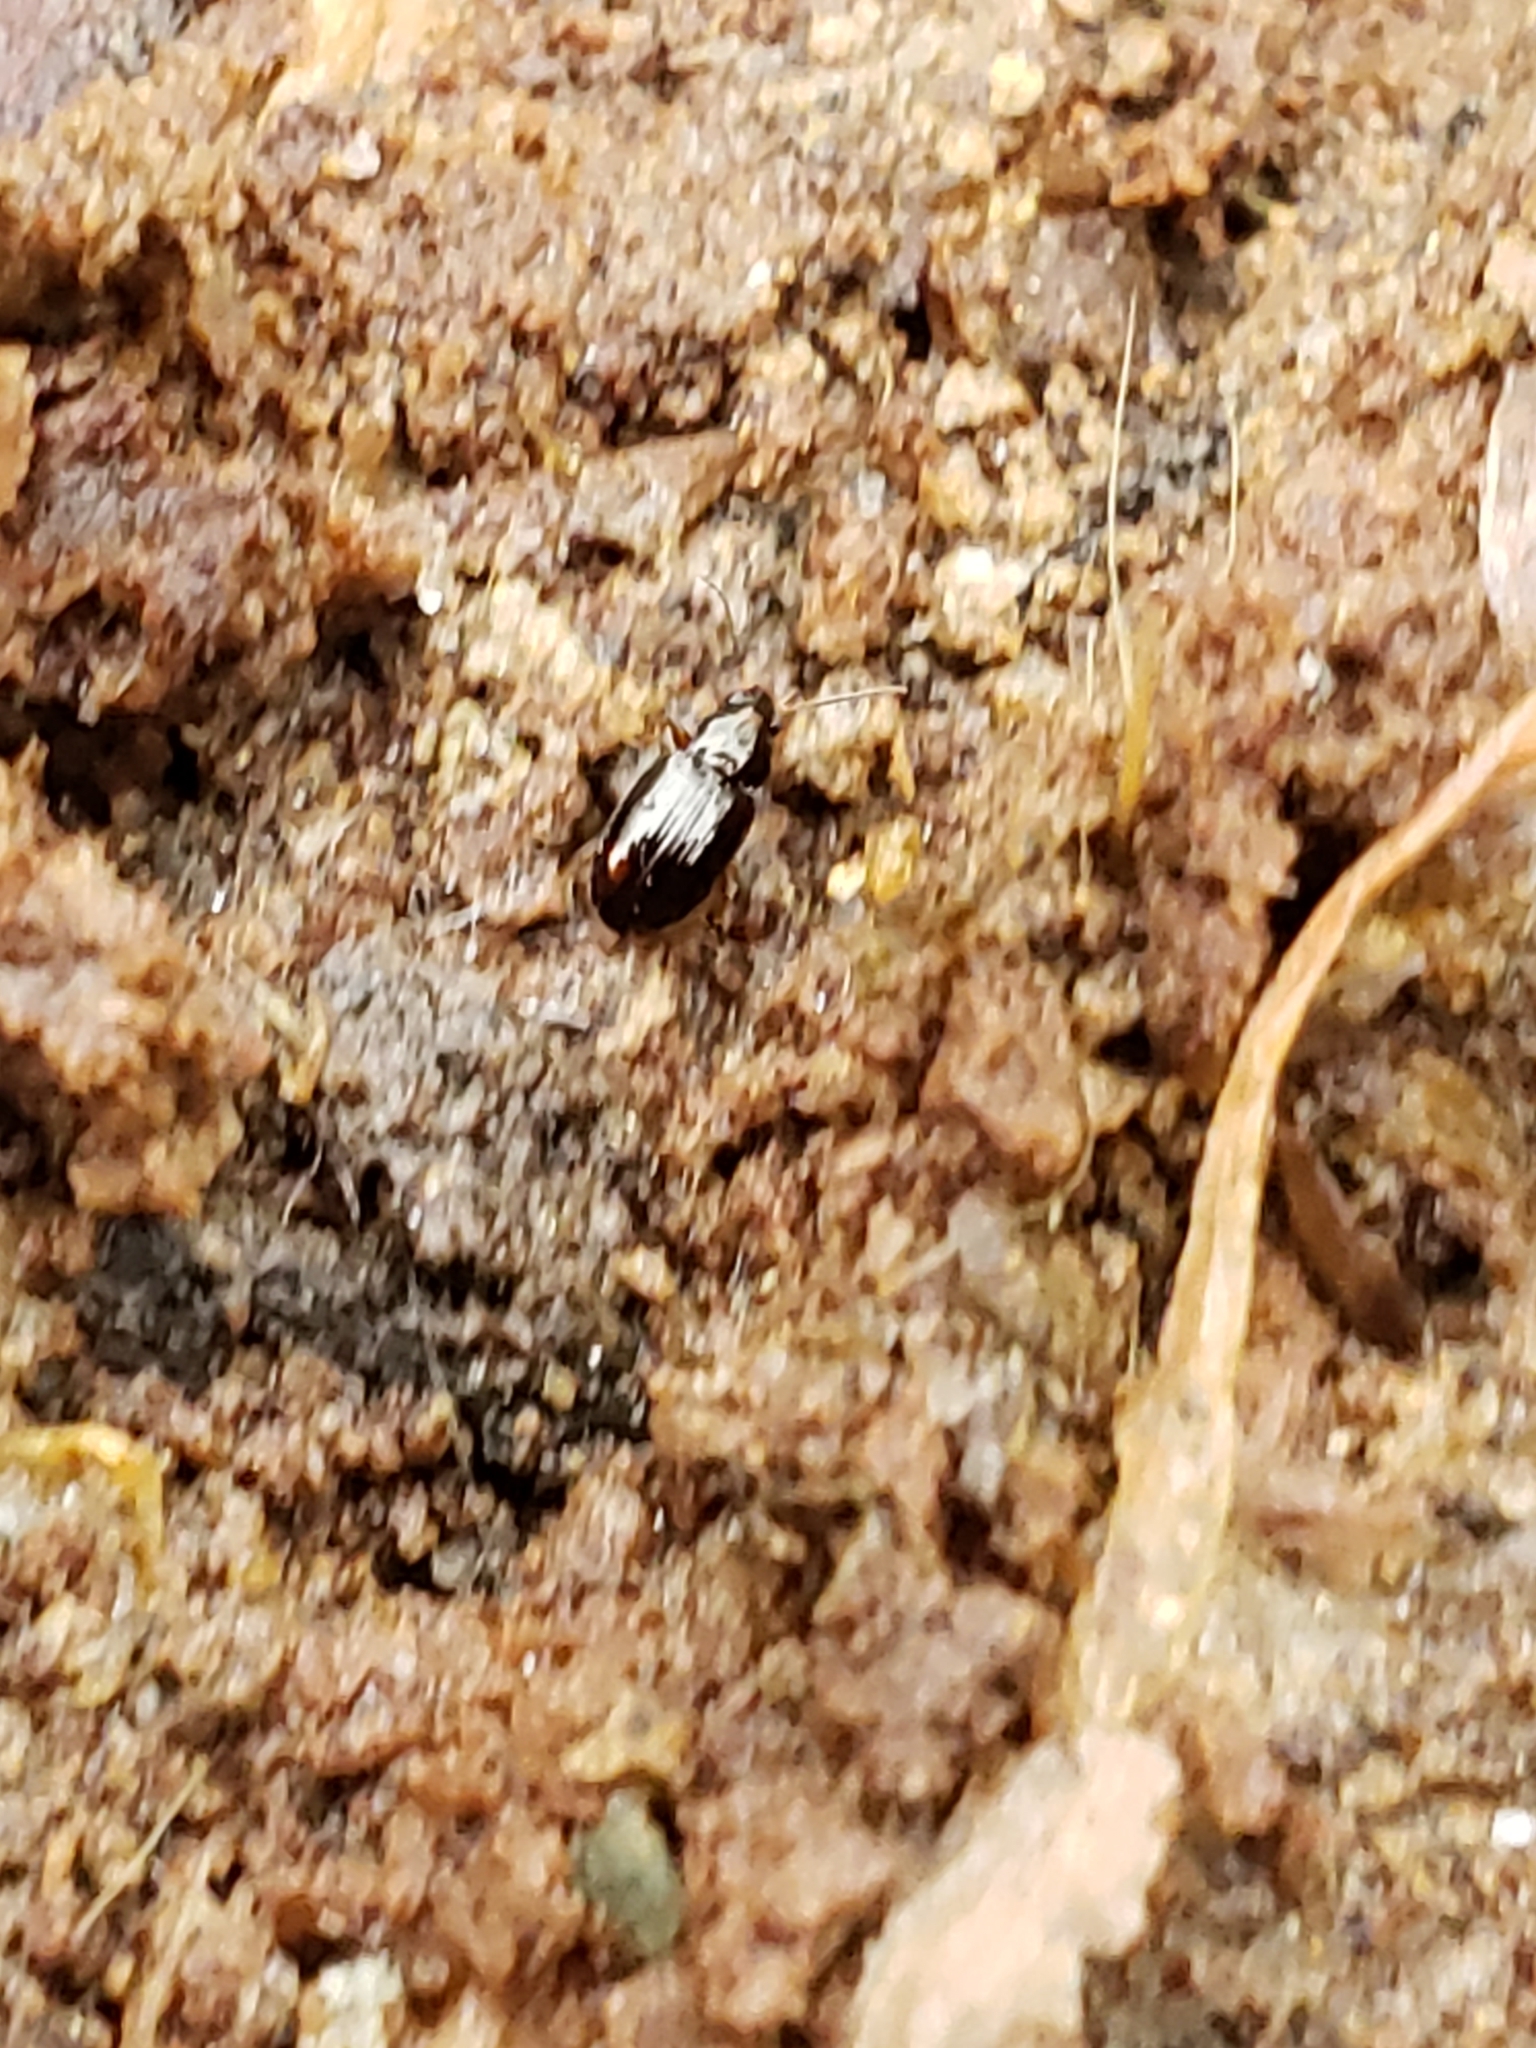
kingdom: Animalia
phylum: Arthropoda
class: Insecta
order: Coleoptera
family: Carabidae
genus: Elaphropus
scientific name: Elaphropus
